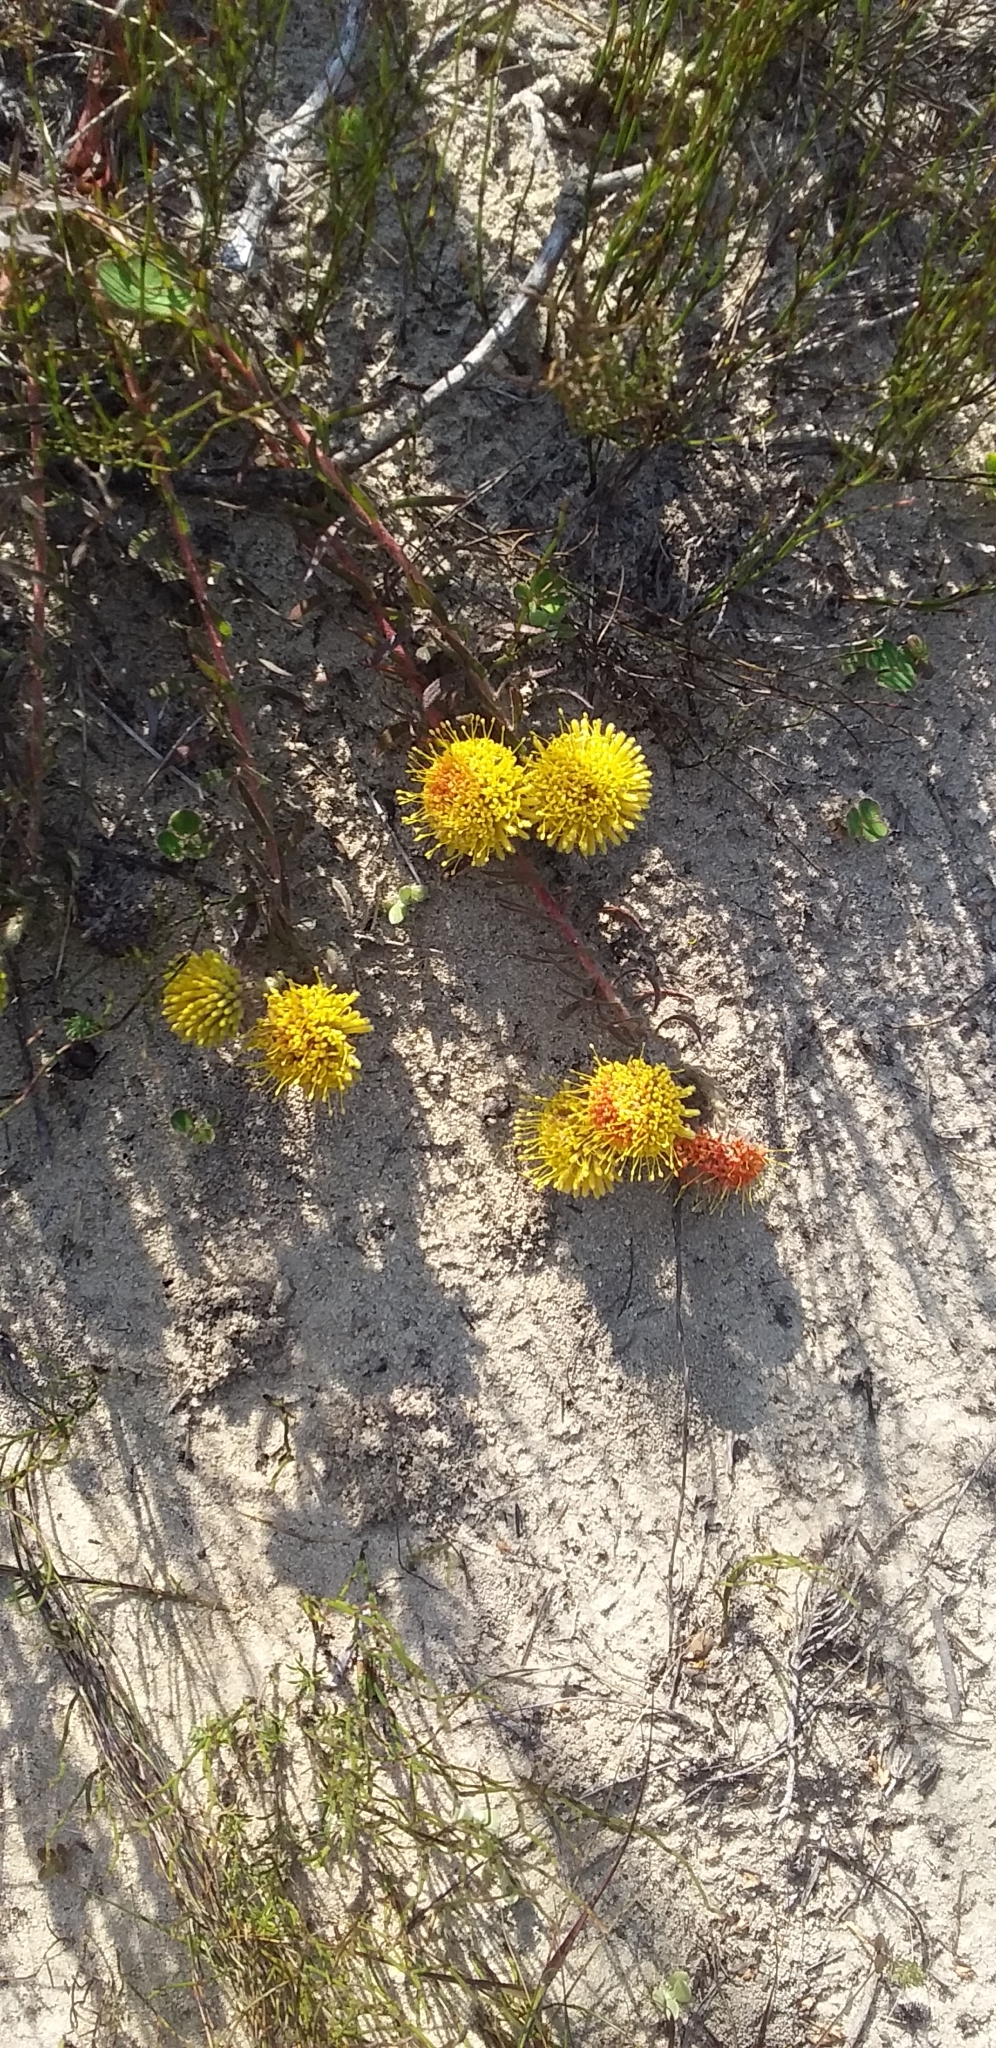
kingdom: Plantae
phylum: Tracheophyta
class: Magnoliopsida
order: Proteales
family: Proteaceae
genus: Leucospermum
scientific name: Leucospermum prostratum
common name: Yellow-trailing pincushion
